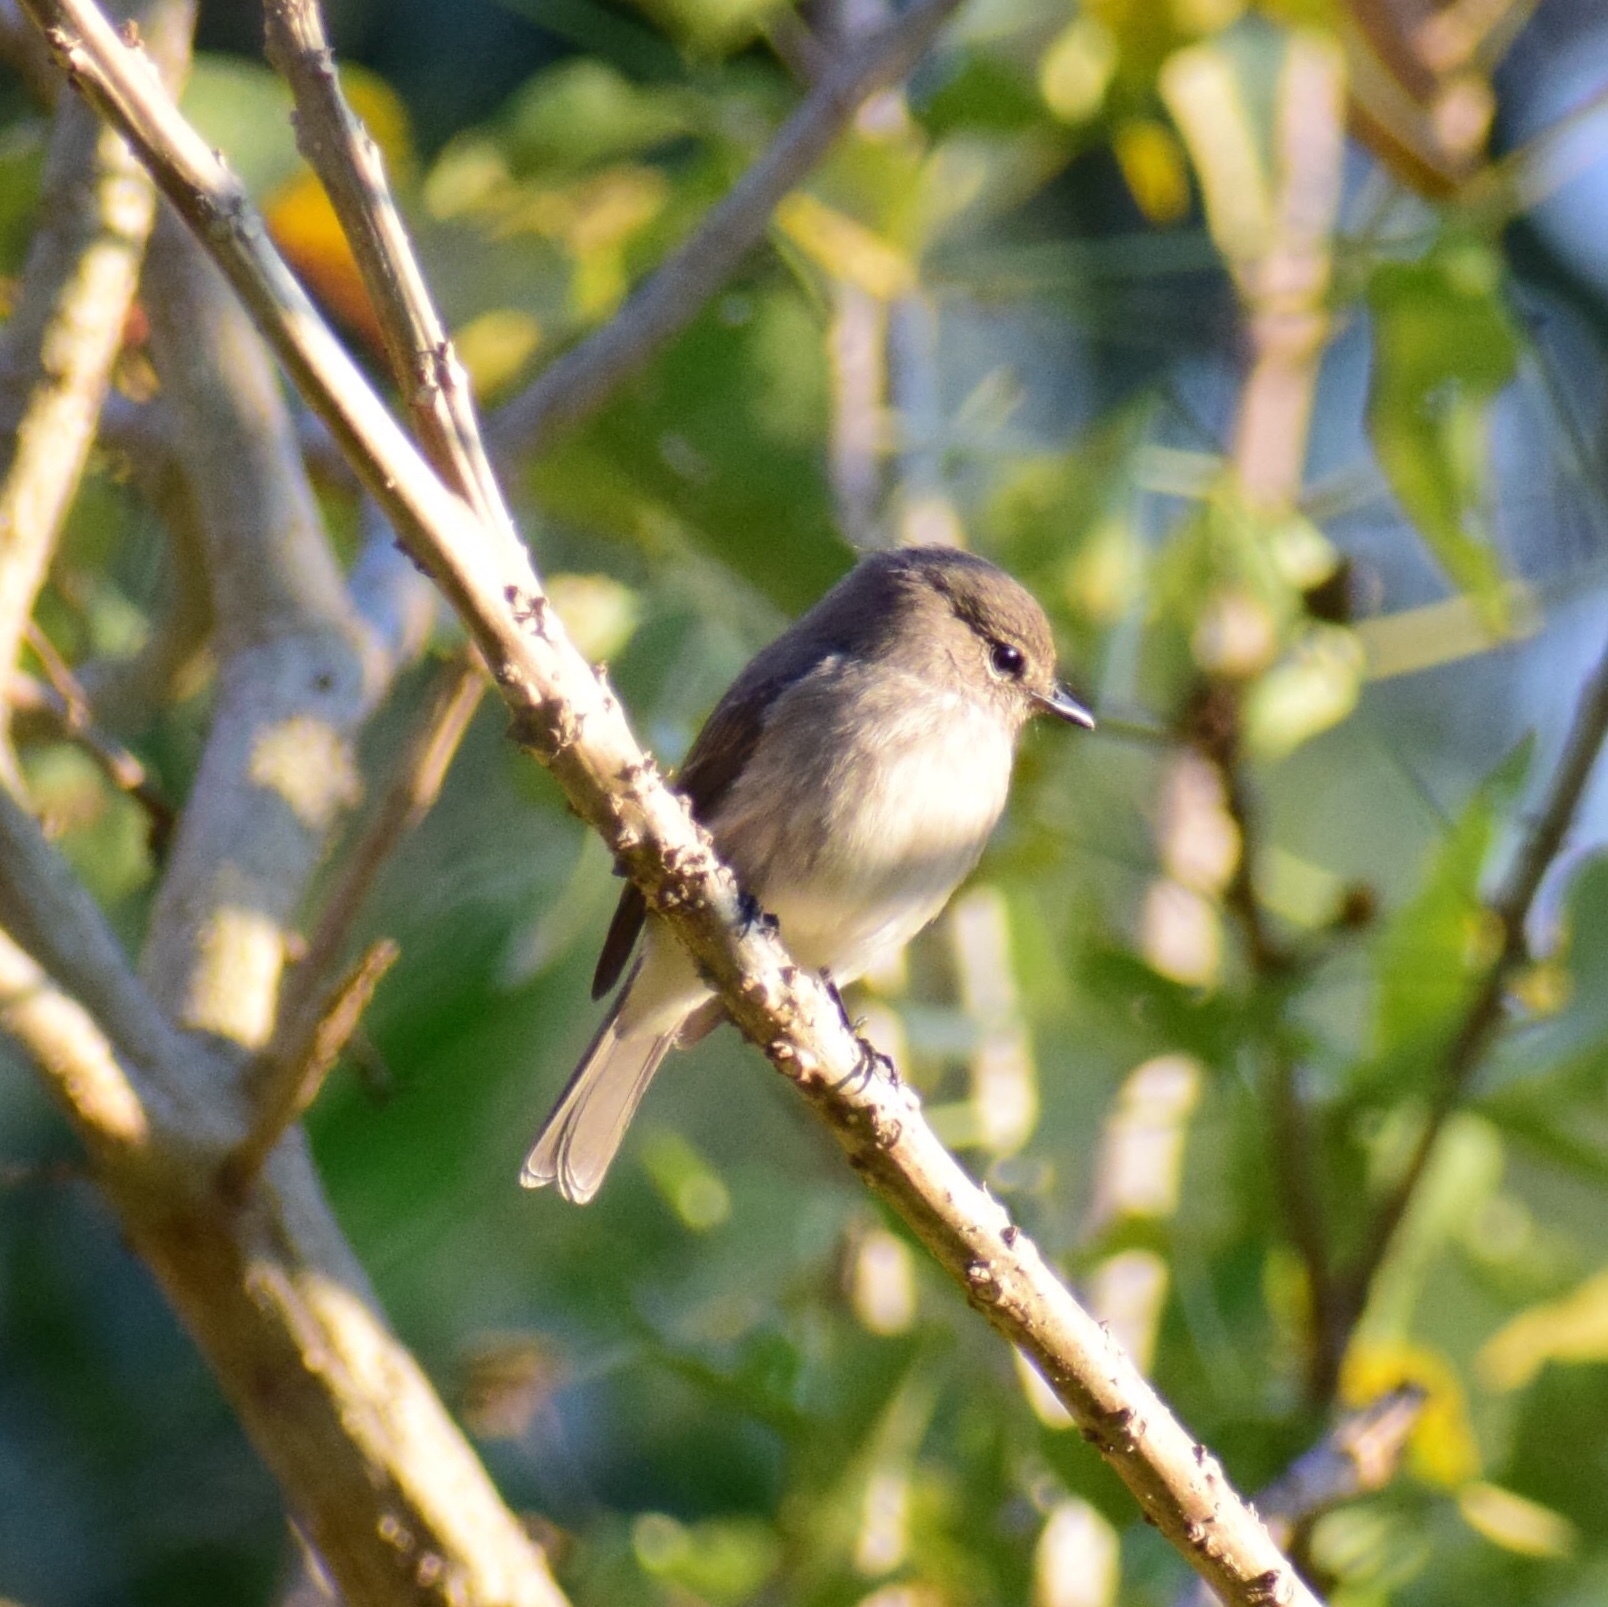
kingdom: Animalia
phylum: Chordata
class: Aves
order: Passeriformes
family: Muscicapidae
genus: Muscicapa
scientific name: Muscicapa adusta
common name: African dusky flycatcher
